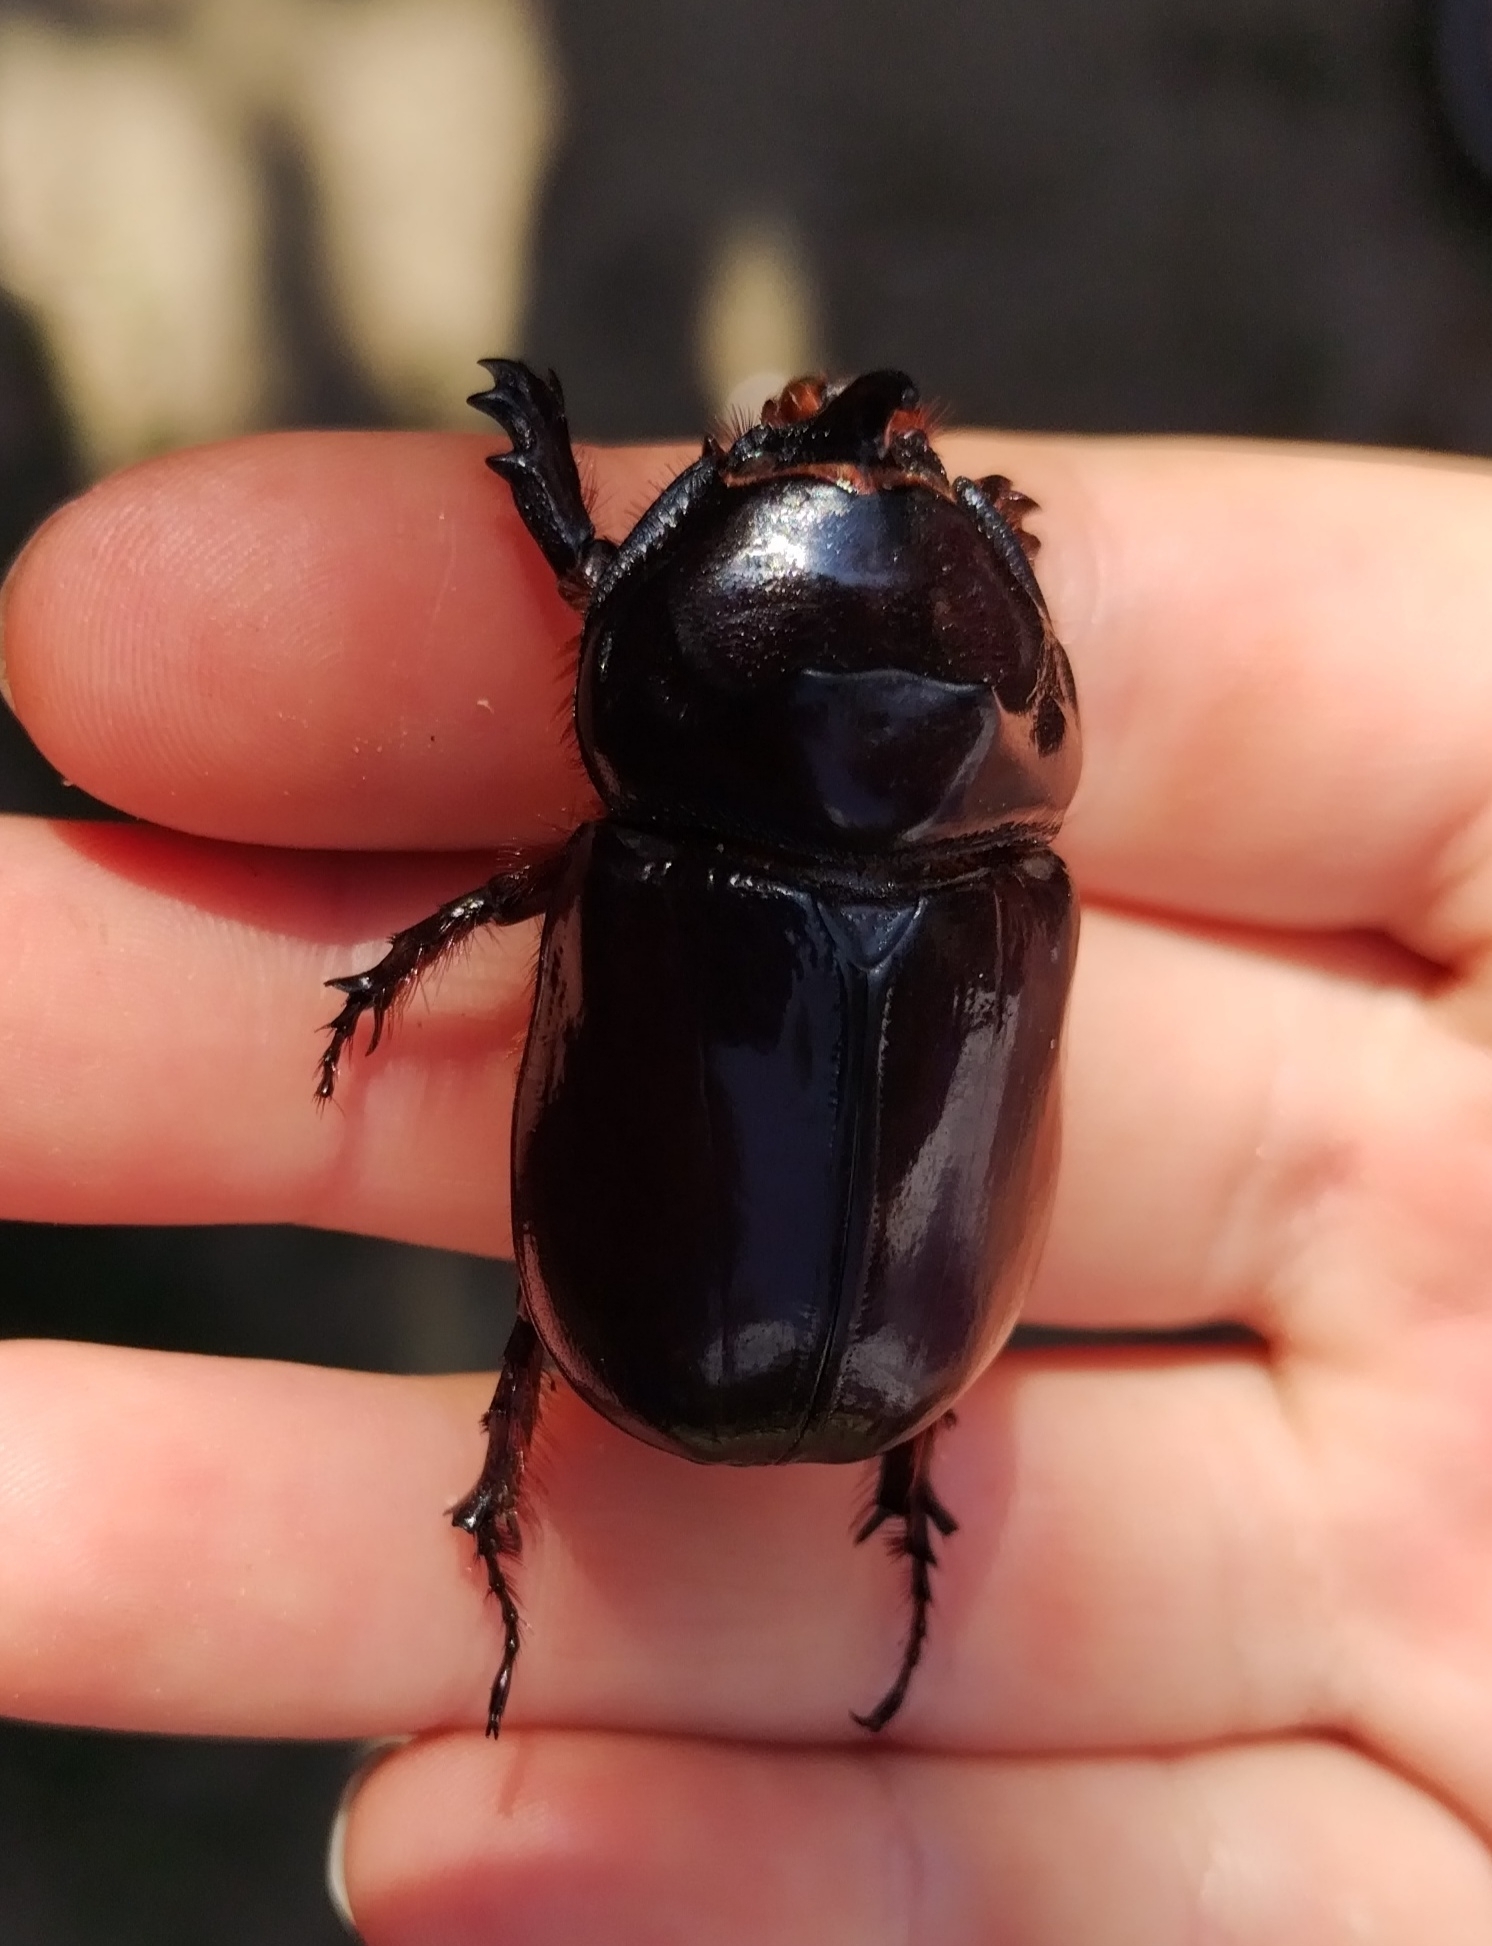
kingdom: Animalia
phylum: Arthropoda
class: Insecta
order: Coleoptera
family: Scarabaeidae
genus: Oryctes
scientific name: Oryctes nasicornis
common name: European rhinoceros beetle
